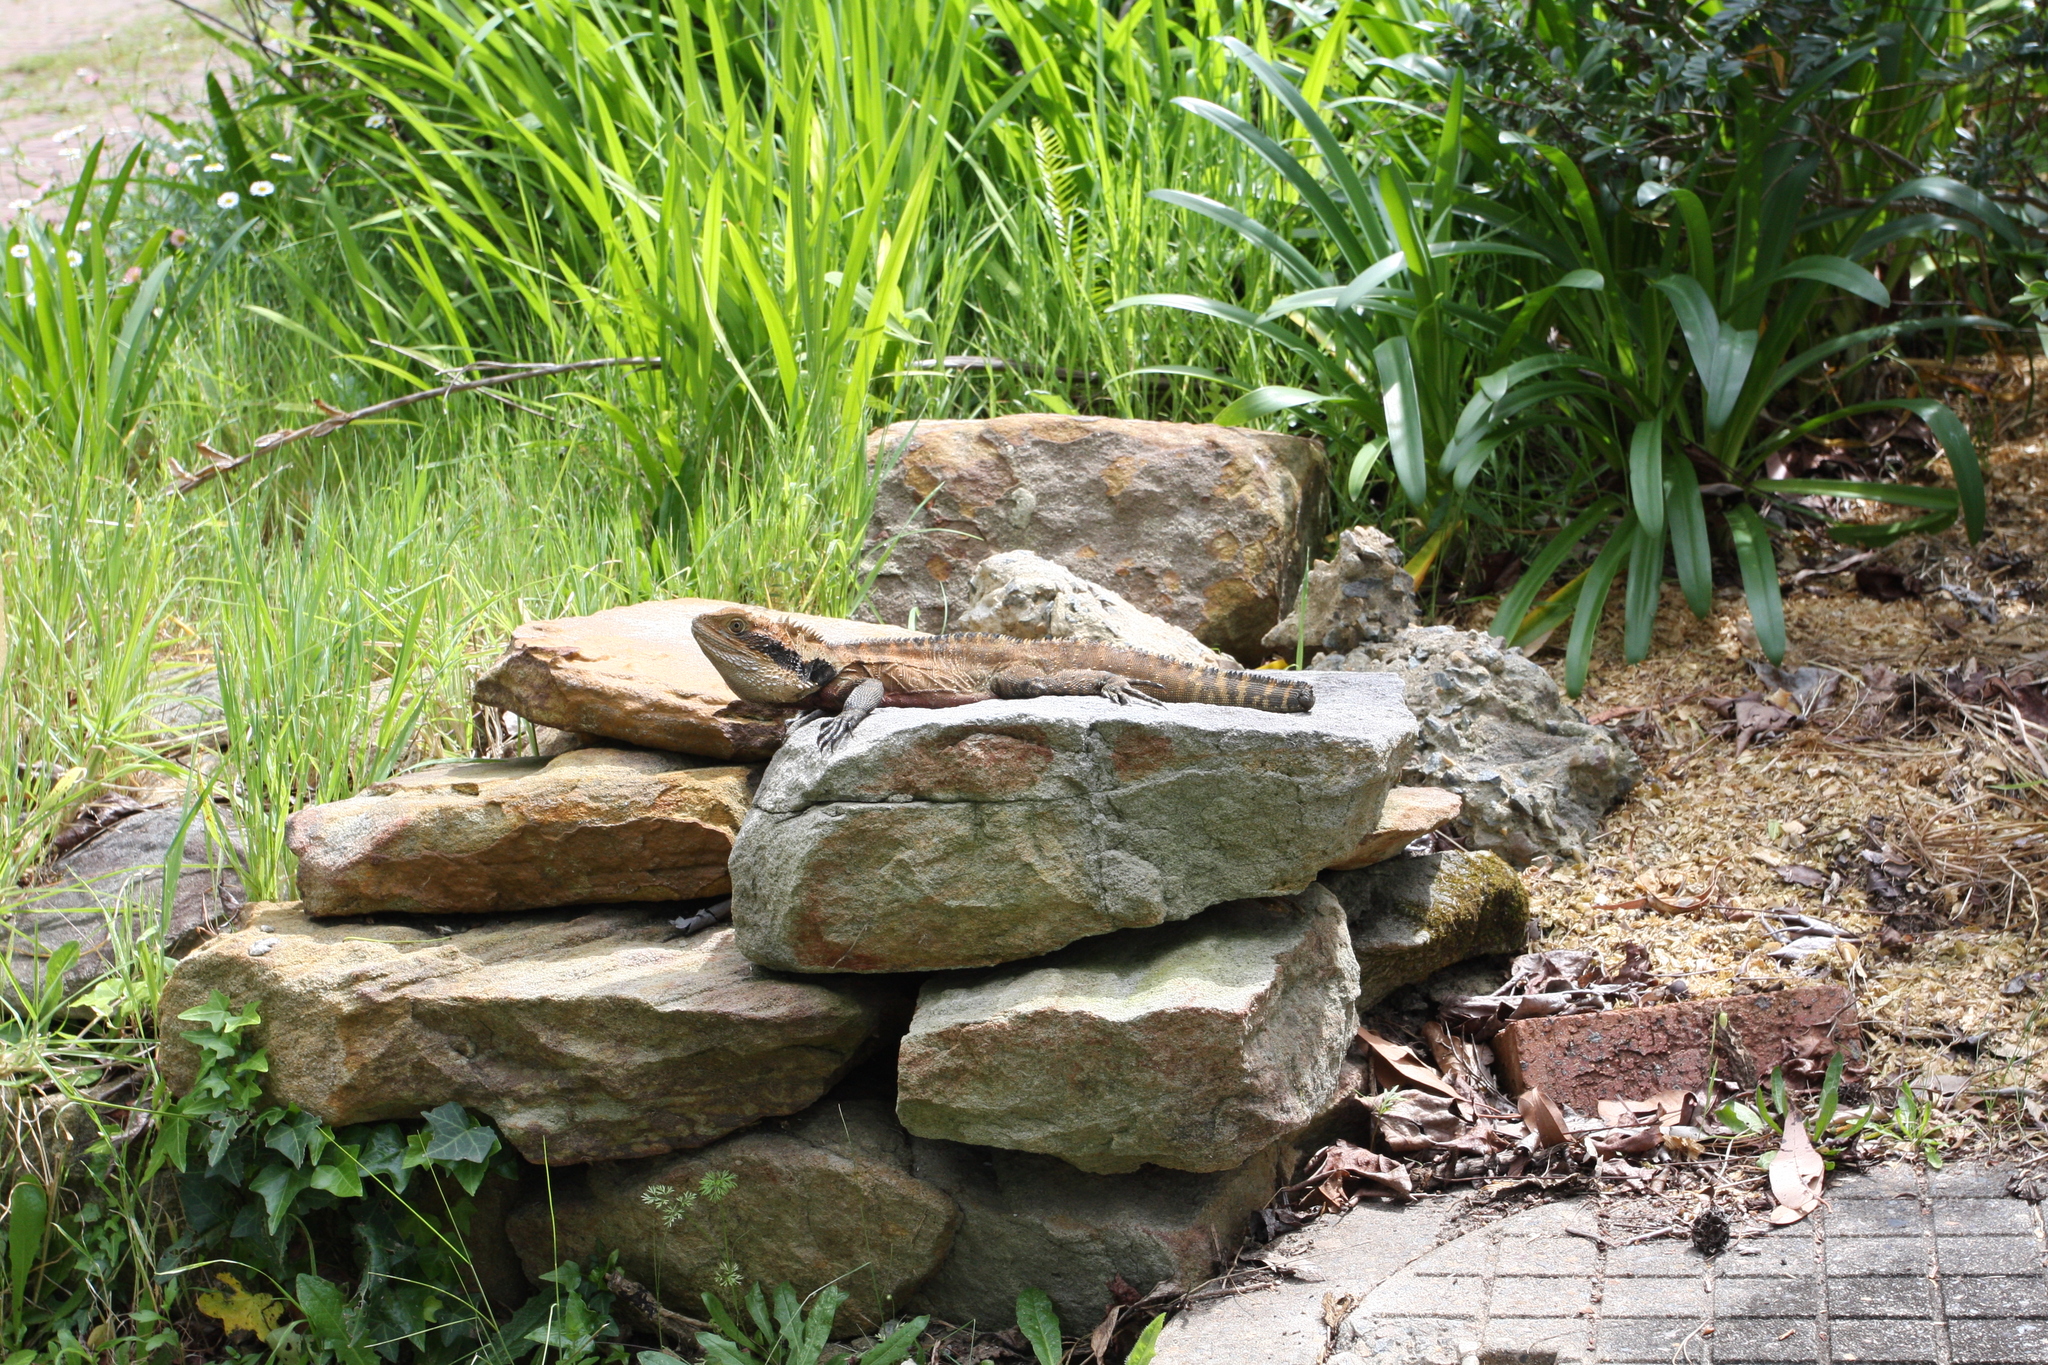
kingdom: Animalia
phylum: Chordata
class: Squamata
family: Agamidae
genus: Intellagama
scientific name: Intellagama lesueurii
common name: Eastern water dragon
